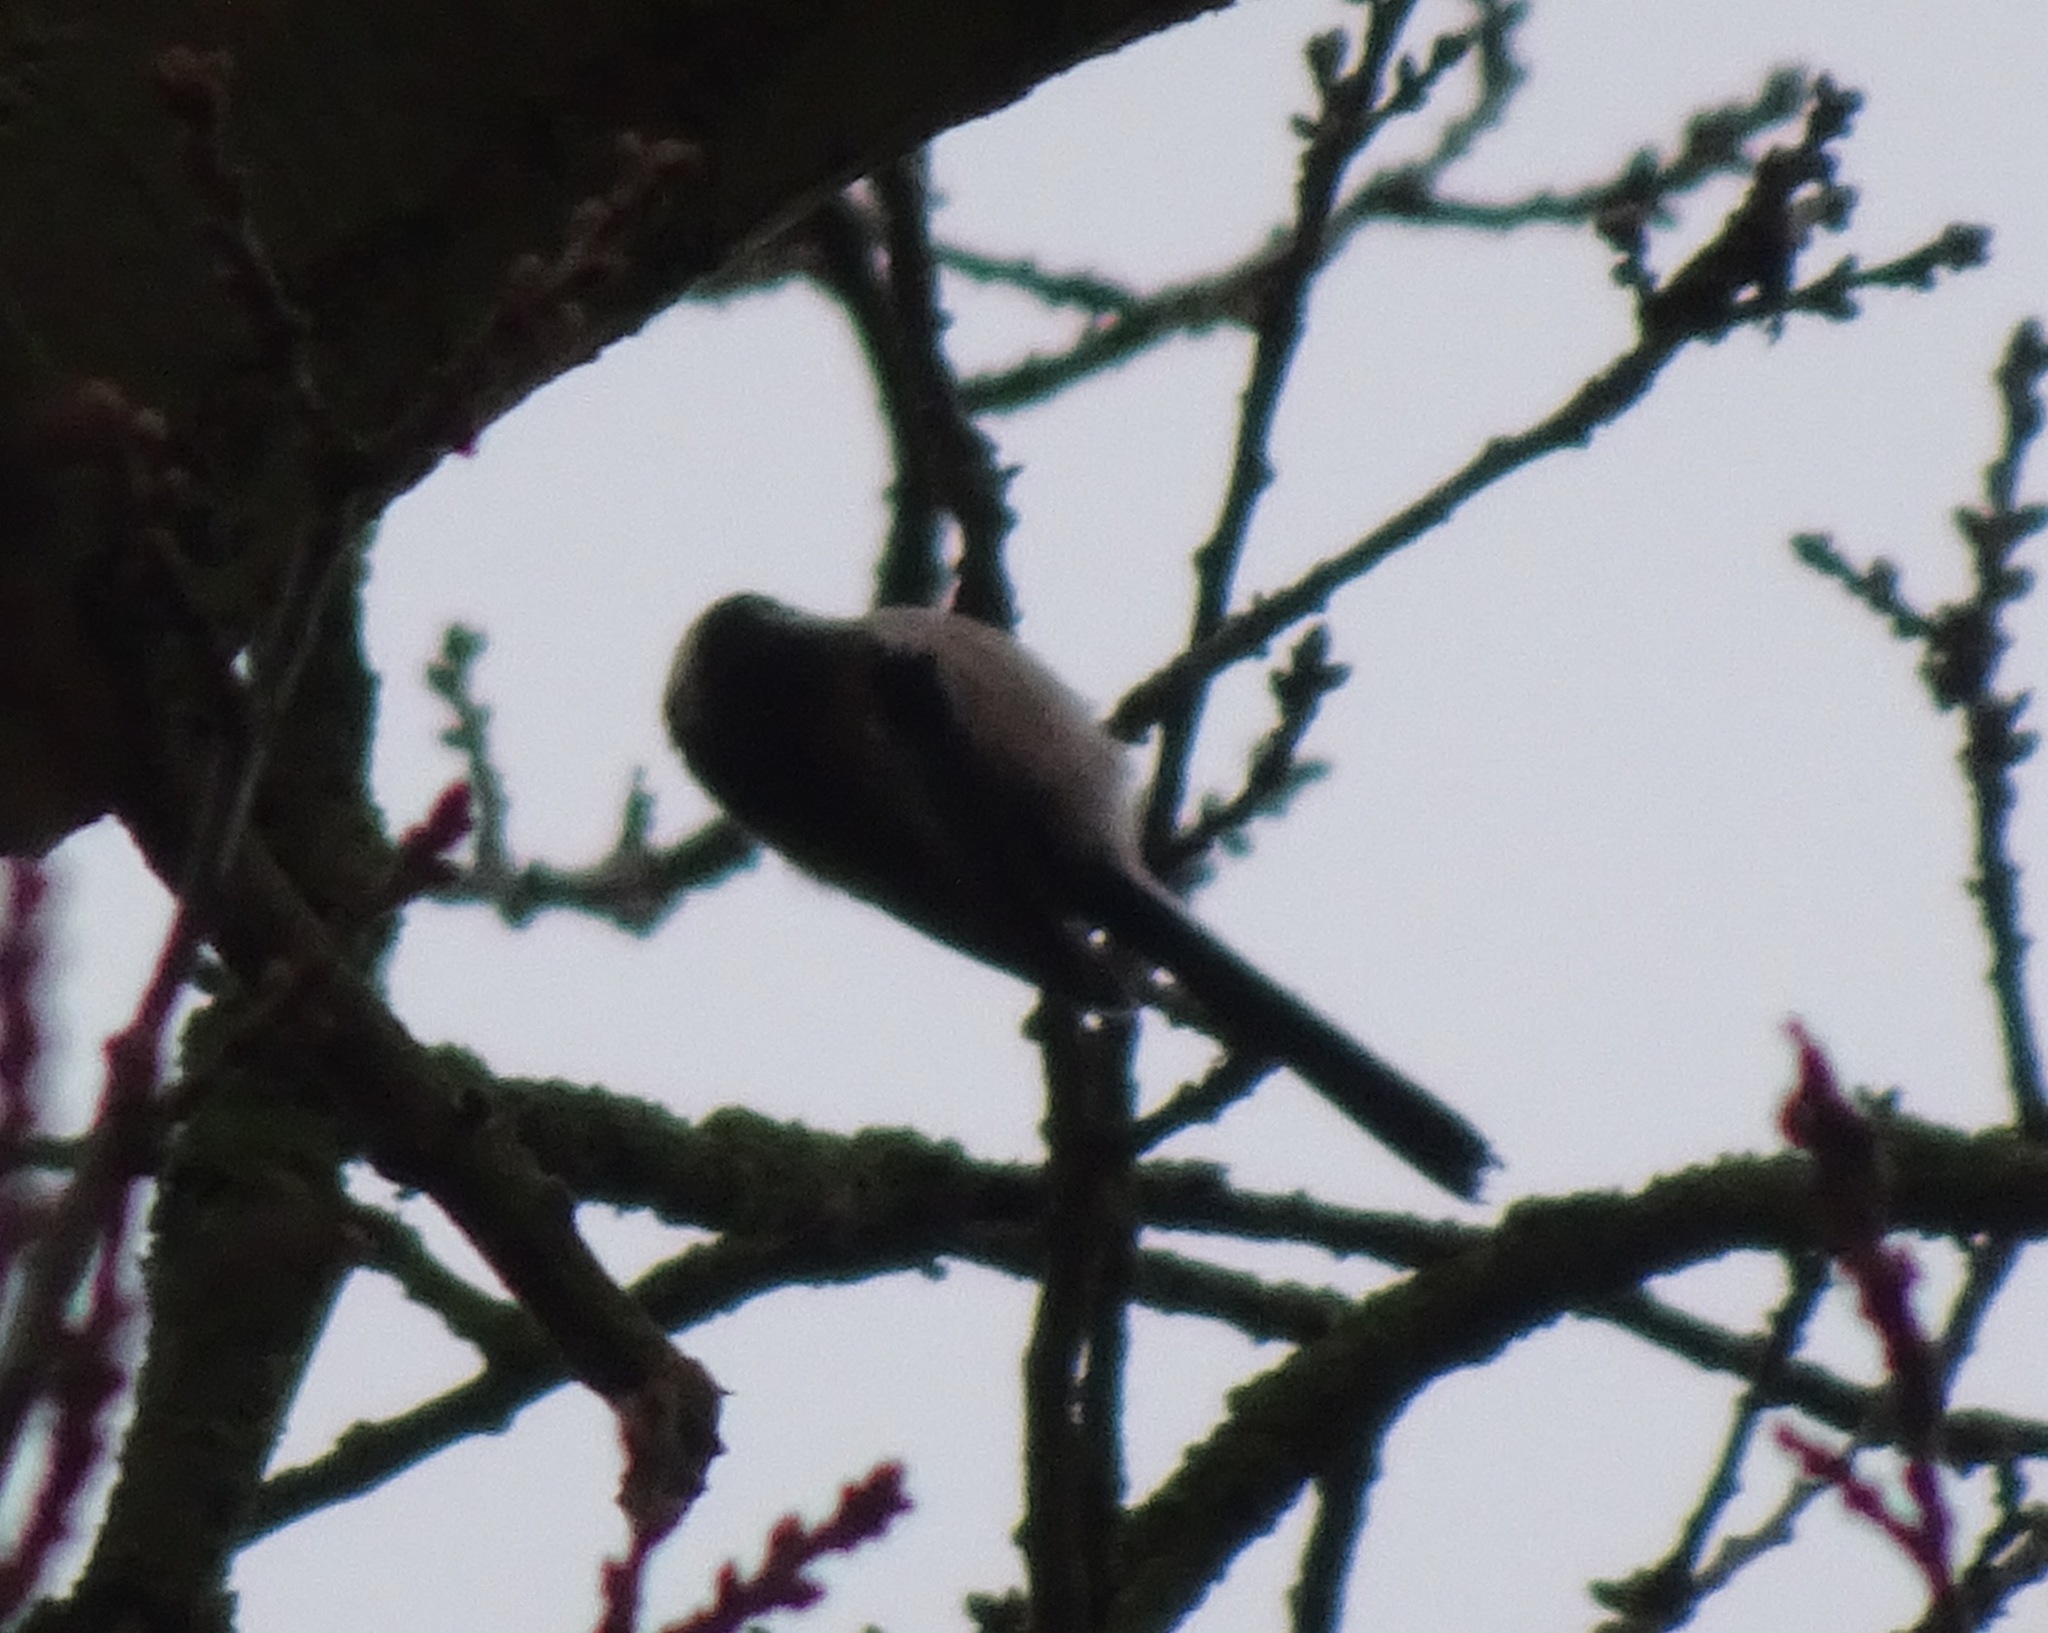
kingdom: Animalia
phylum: Chordata
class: Aves
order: Passeriformes
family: Aegithalidae
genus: Aegithalos
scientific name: Aegithalos caudatus
